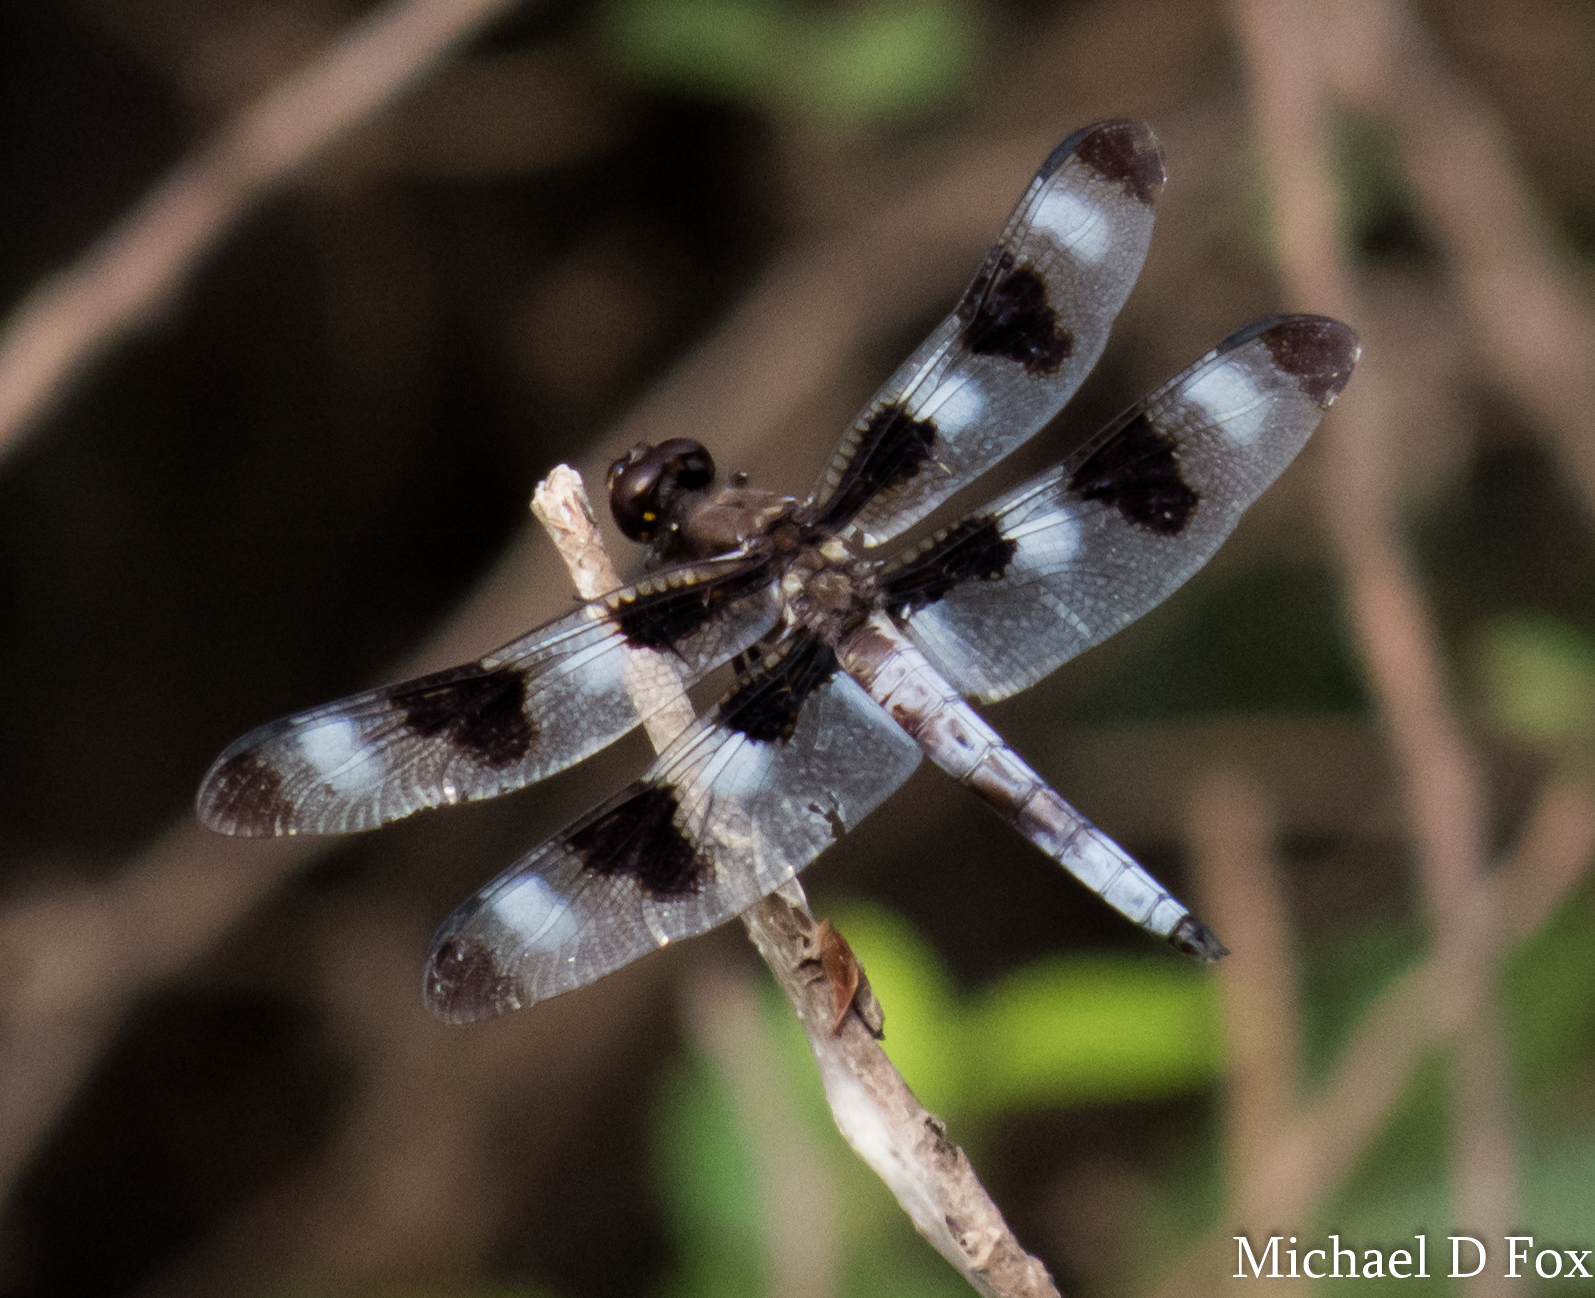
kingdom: Animalia
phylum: Arthropoda
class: Insecta
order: Odonata
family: Libellulidae
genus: Libellula
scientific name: Libellula pulchella
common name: Twelve-spotted skimmer
